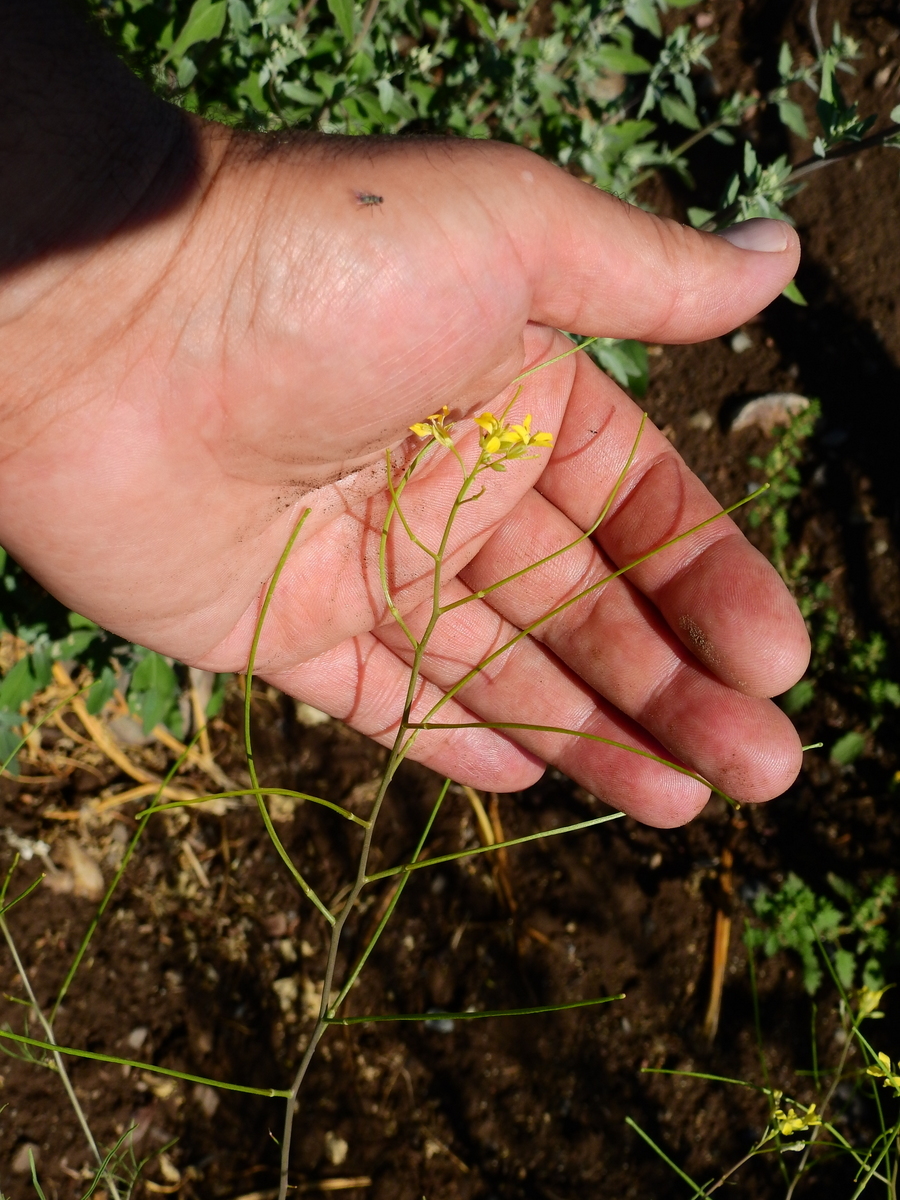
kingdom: Plantae
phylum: Tracheophyta
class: Magnoliopsida
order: Brassicales
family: Brassicaceae
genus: Sisymbrium
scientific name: Sisymbrium altissimum
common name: Tall rocket
